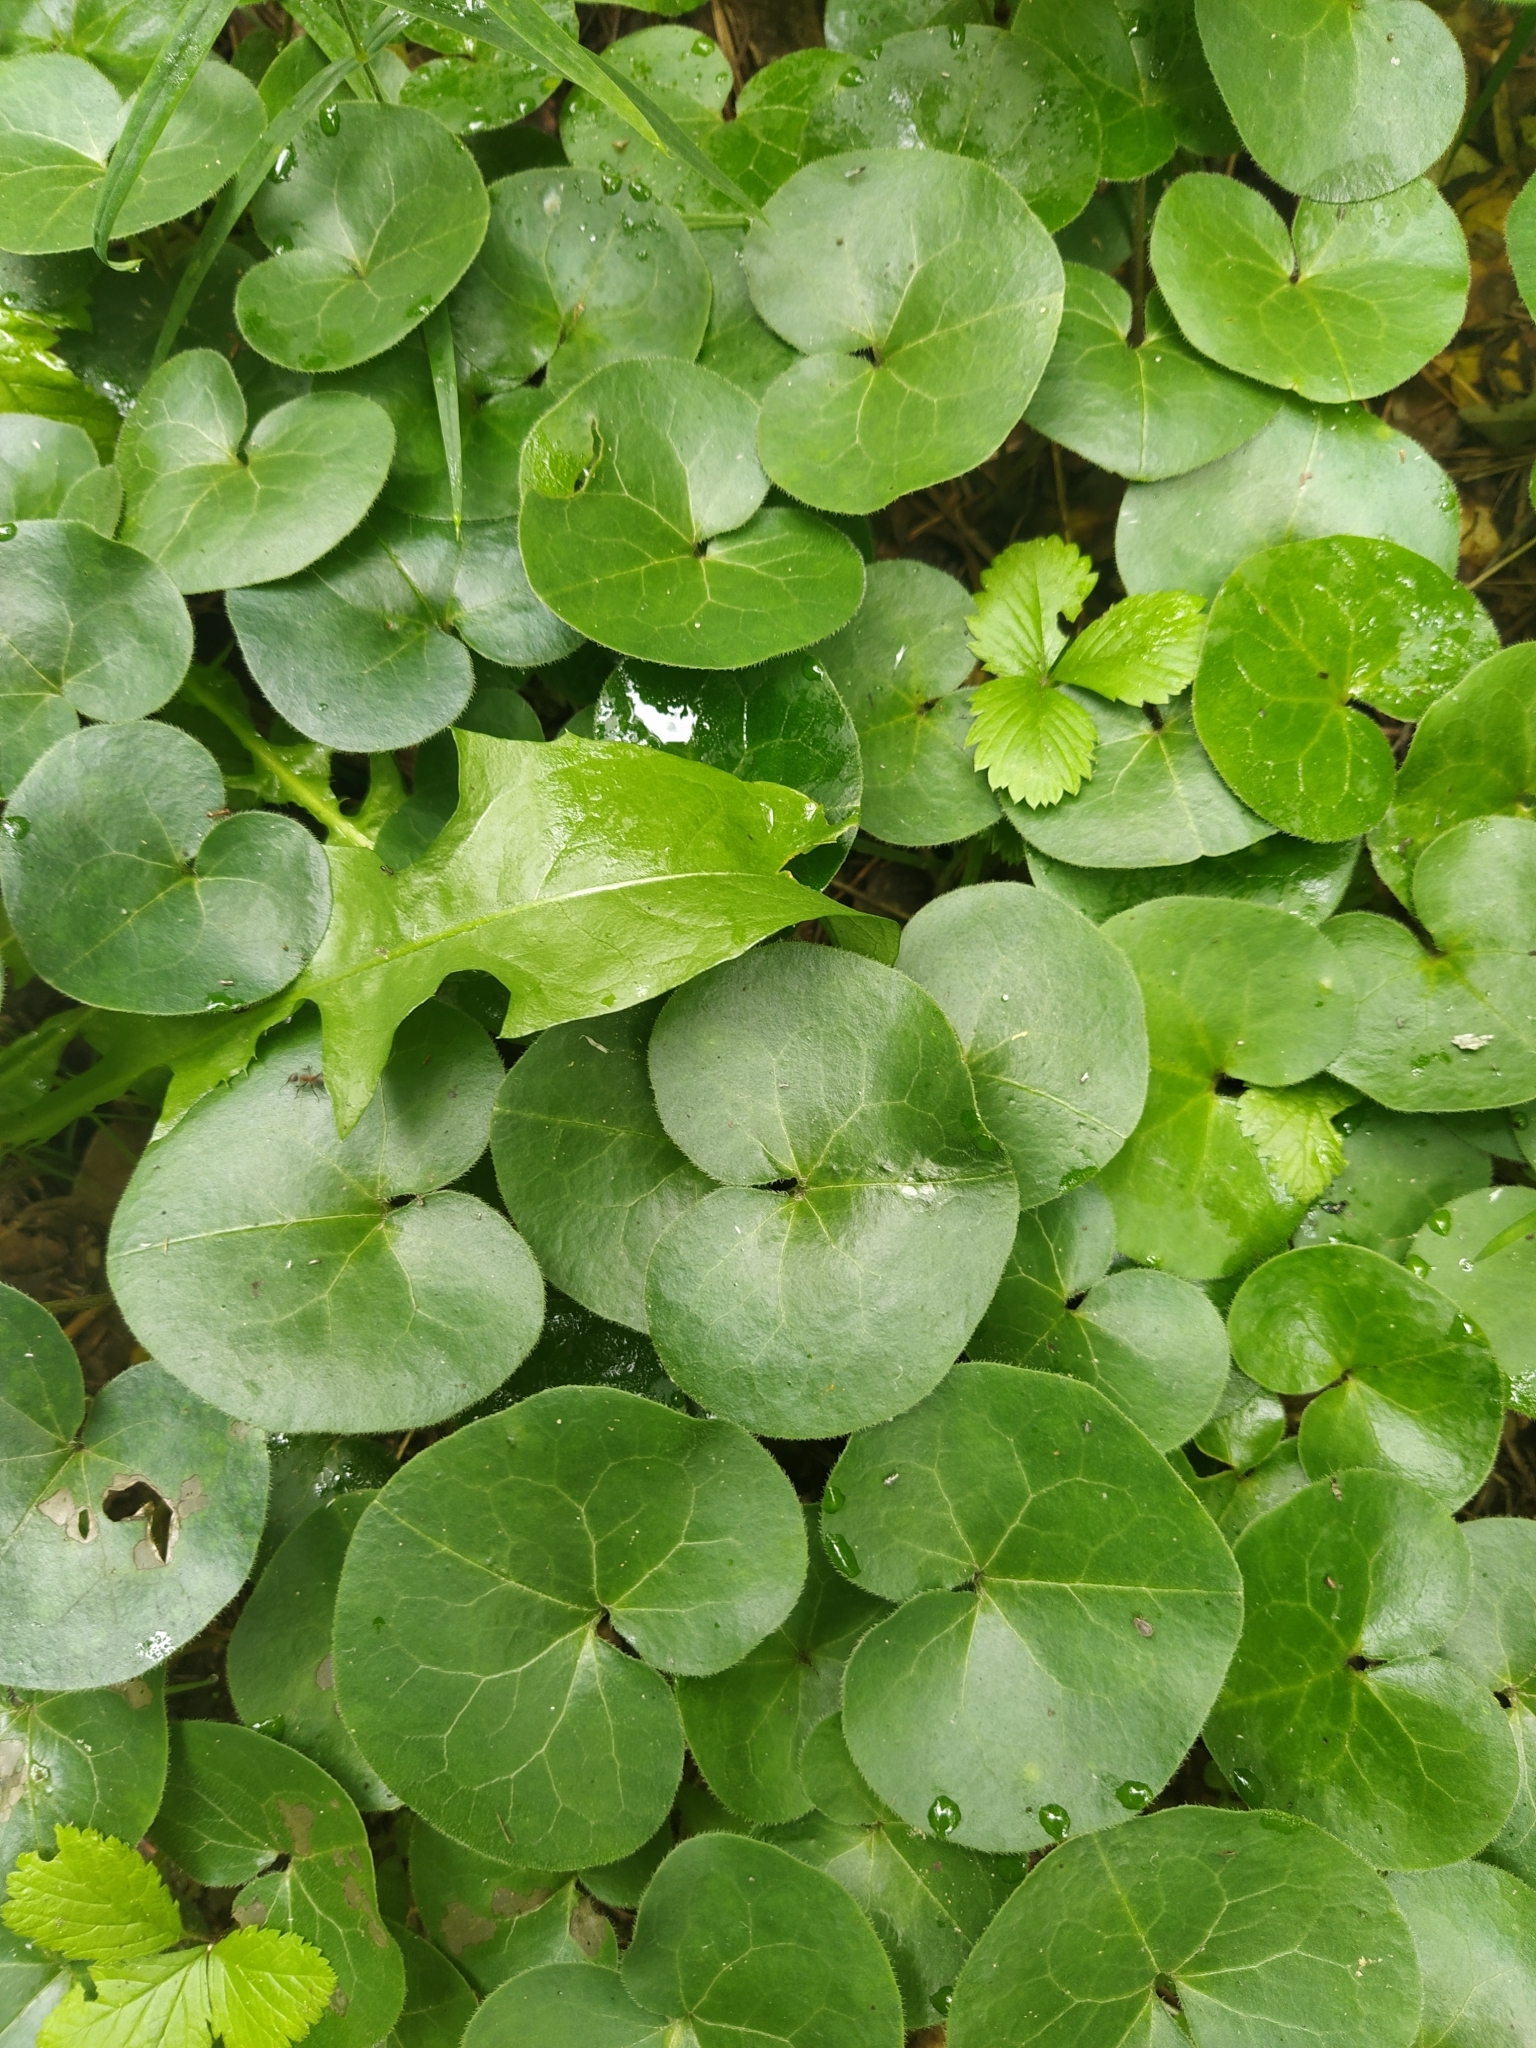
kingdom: Plantae
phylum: Tracheophyta
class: Magnoliopsida
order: Piperales
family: Aristolochiaceae
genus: Asarum
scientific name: Asarum europaeum
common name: Asarabacca
